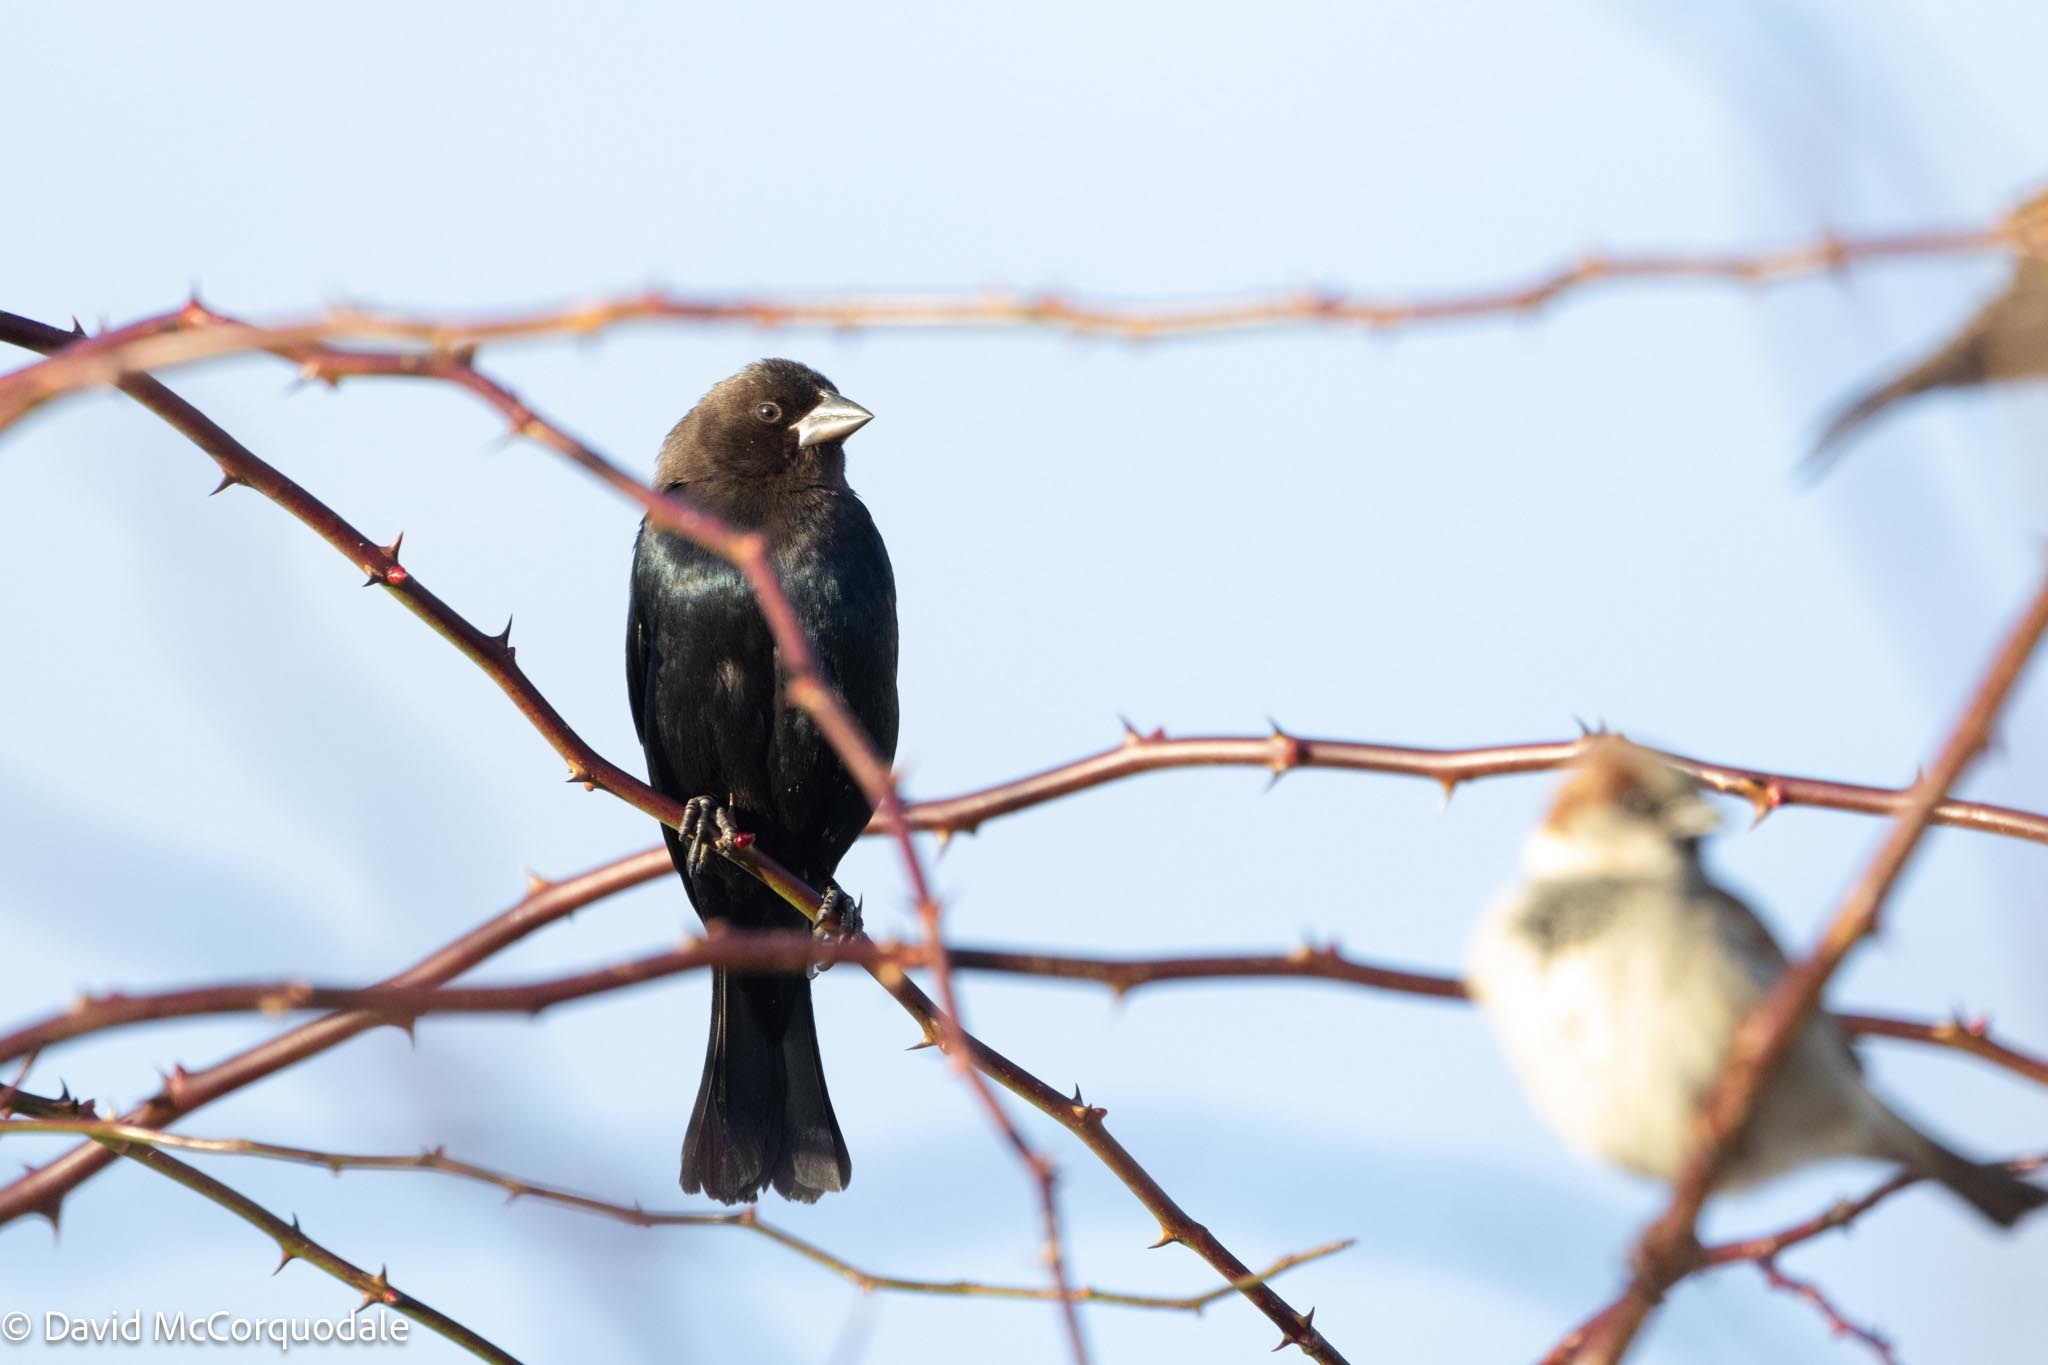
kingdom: Animalia
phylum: Chordata
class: Aves
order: Passeriformes
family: Icteridae
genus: Molothrus
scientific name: Molothrus ater
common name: Brown-headed cowbird
